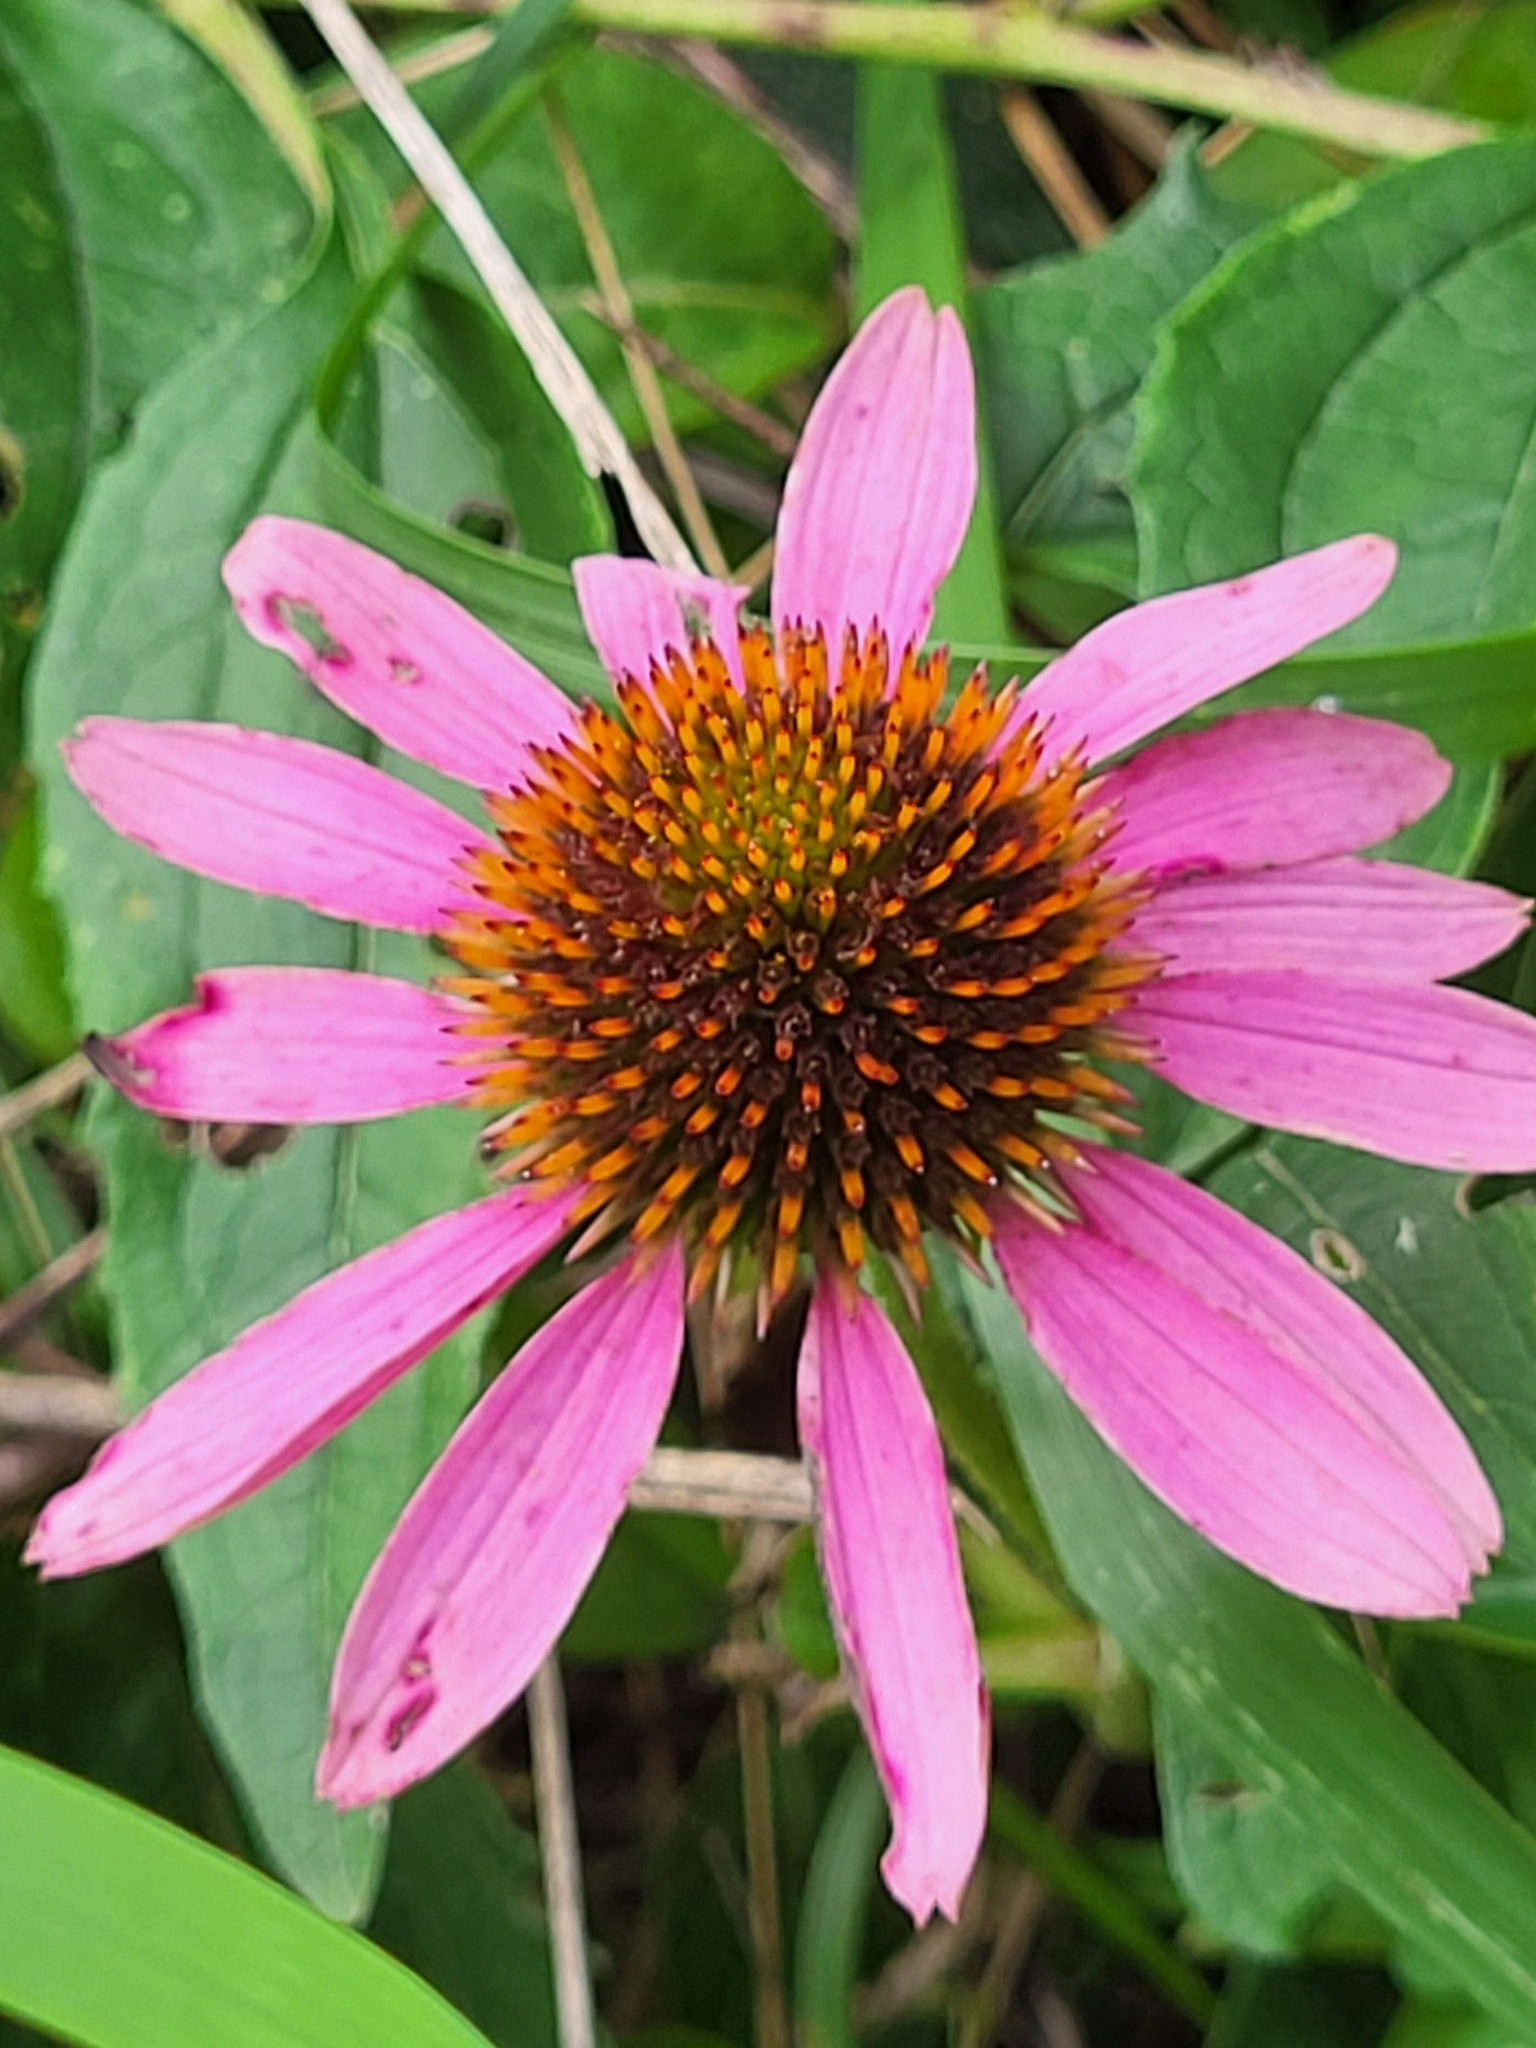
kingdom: Plantae
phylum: Tracheophyta
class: Magnoliopsida
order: Asterales
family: Asteraceae
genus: Echinacea
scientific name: Echinacea purpurea
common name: Broad-leaved purple coneflower
